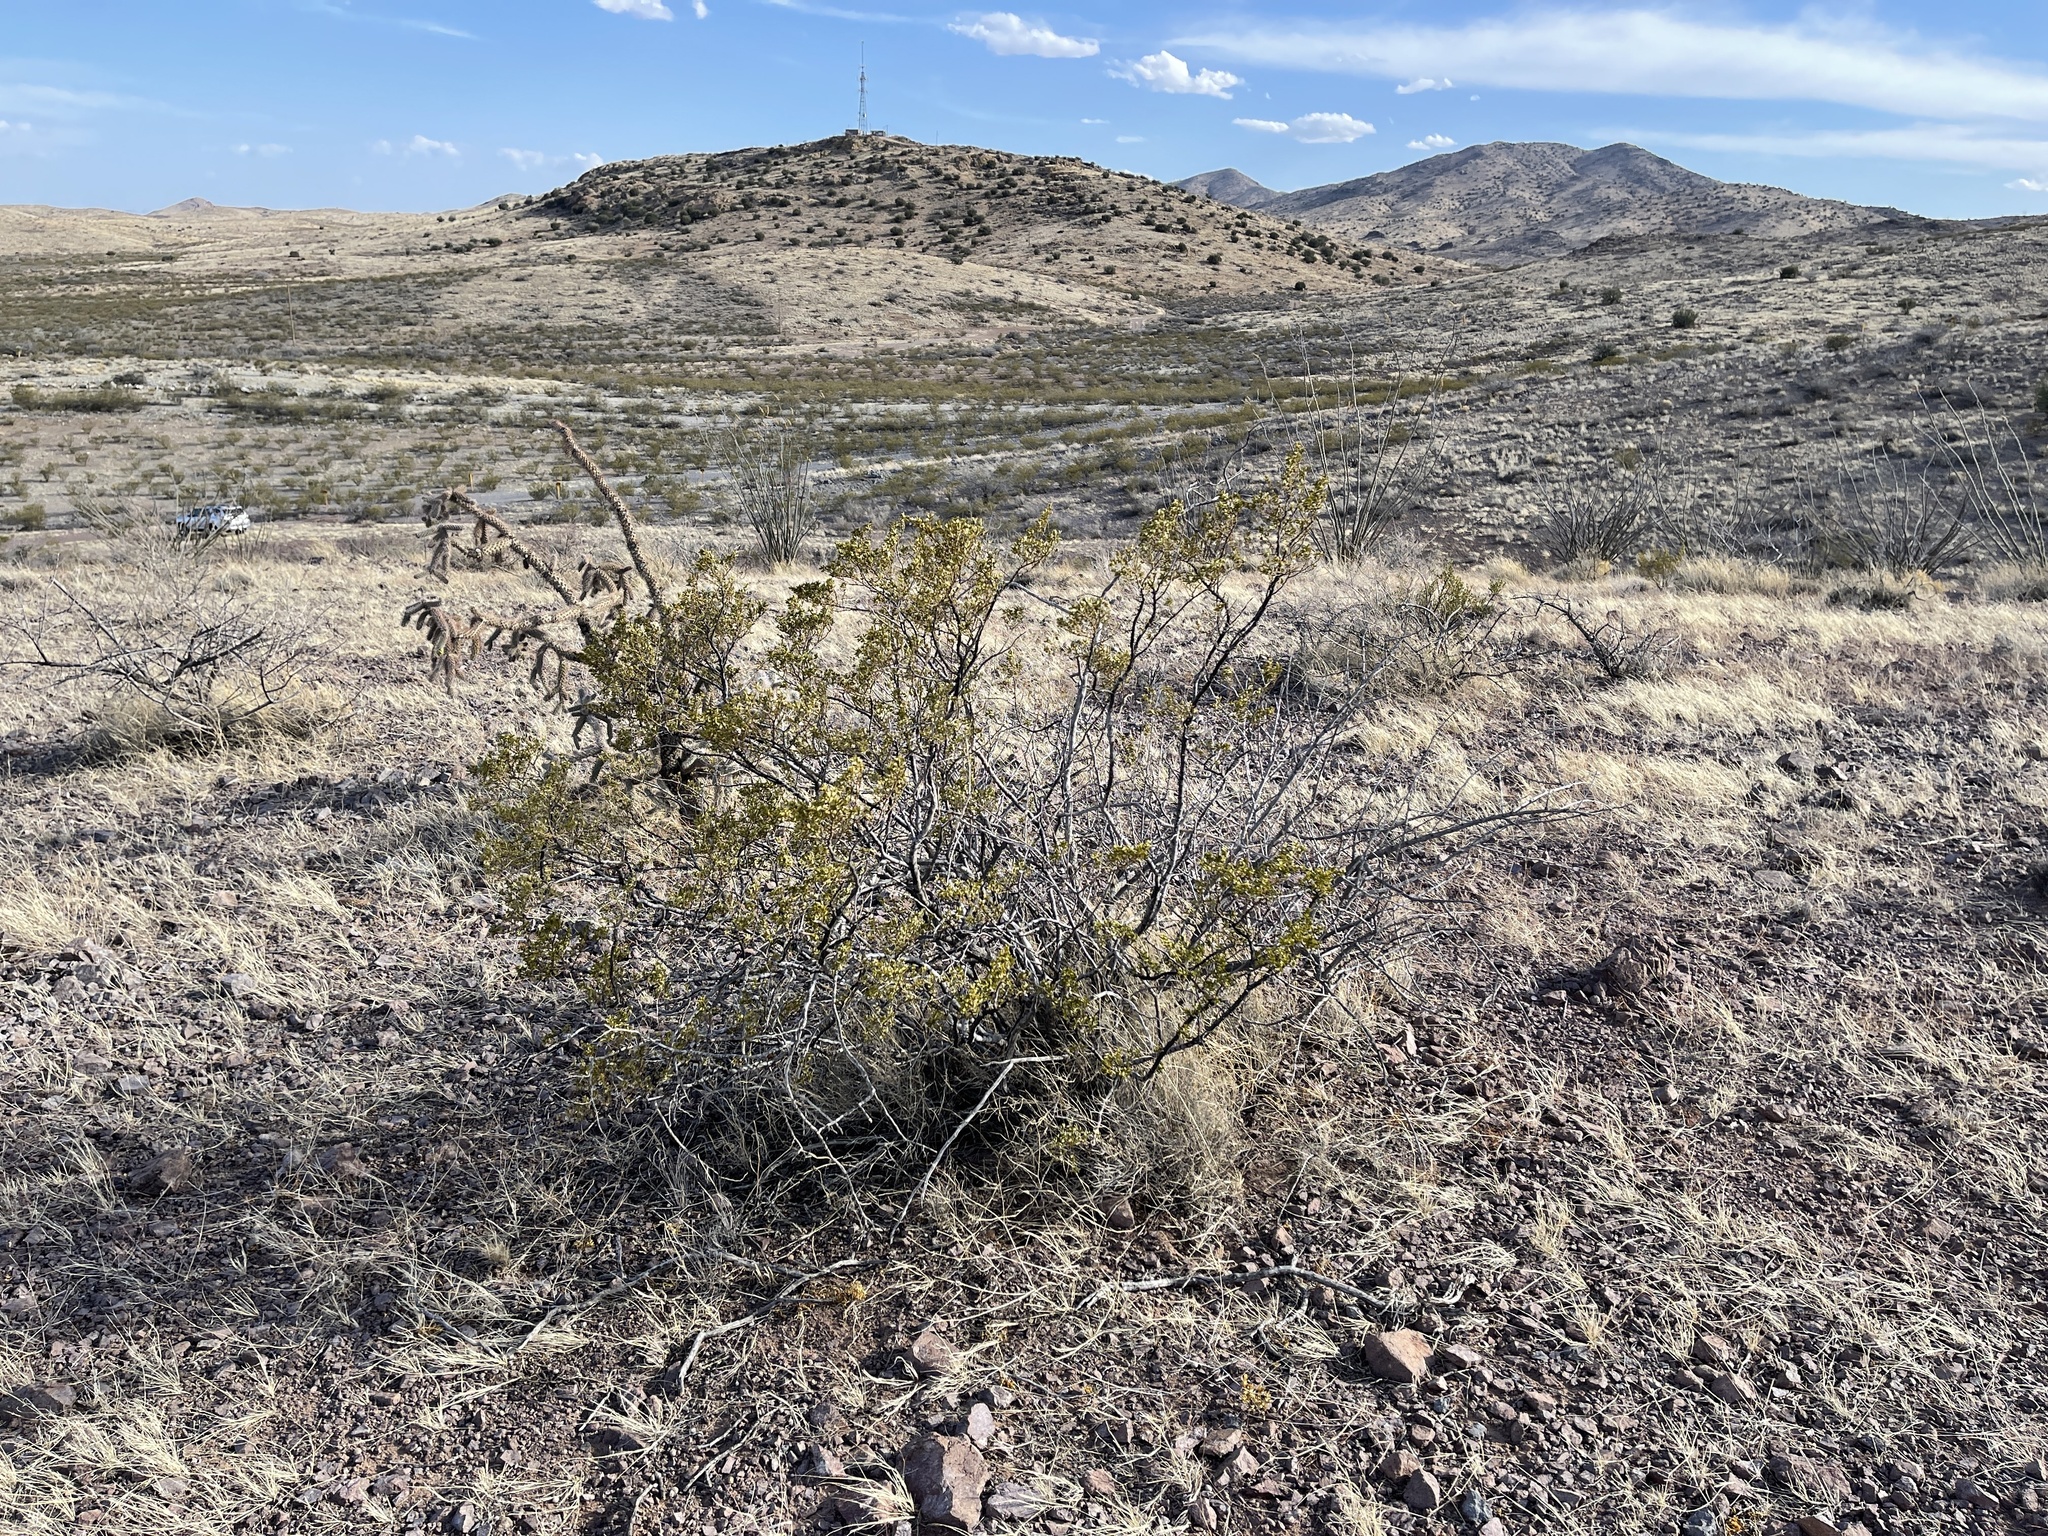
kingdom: Plantae
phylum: Tracheophyta
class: Magnoliopsida
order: Zygophyllales
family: Zygophyllaceae
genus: Larrea
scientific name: Larrea tridentata
